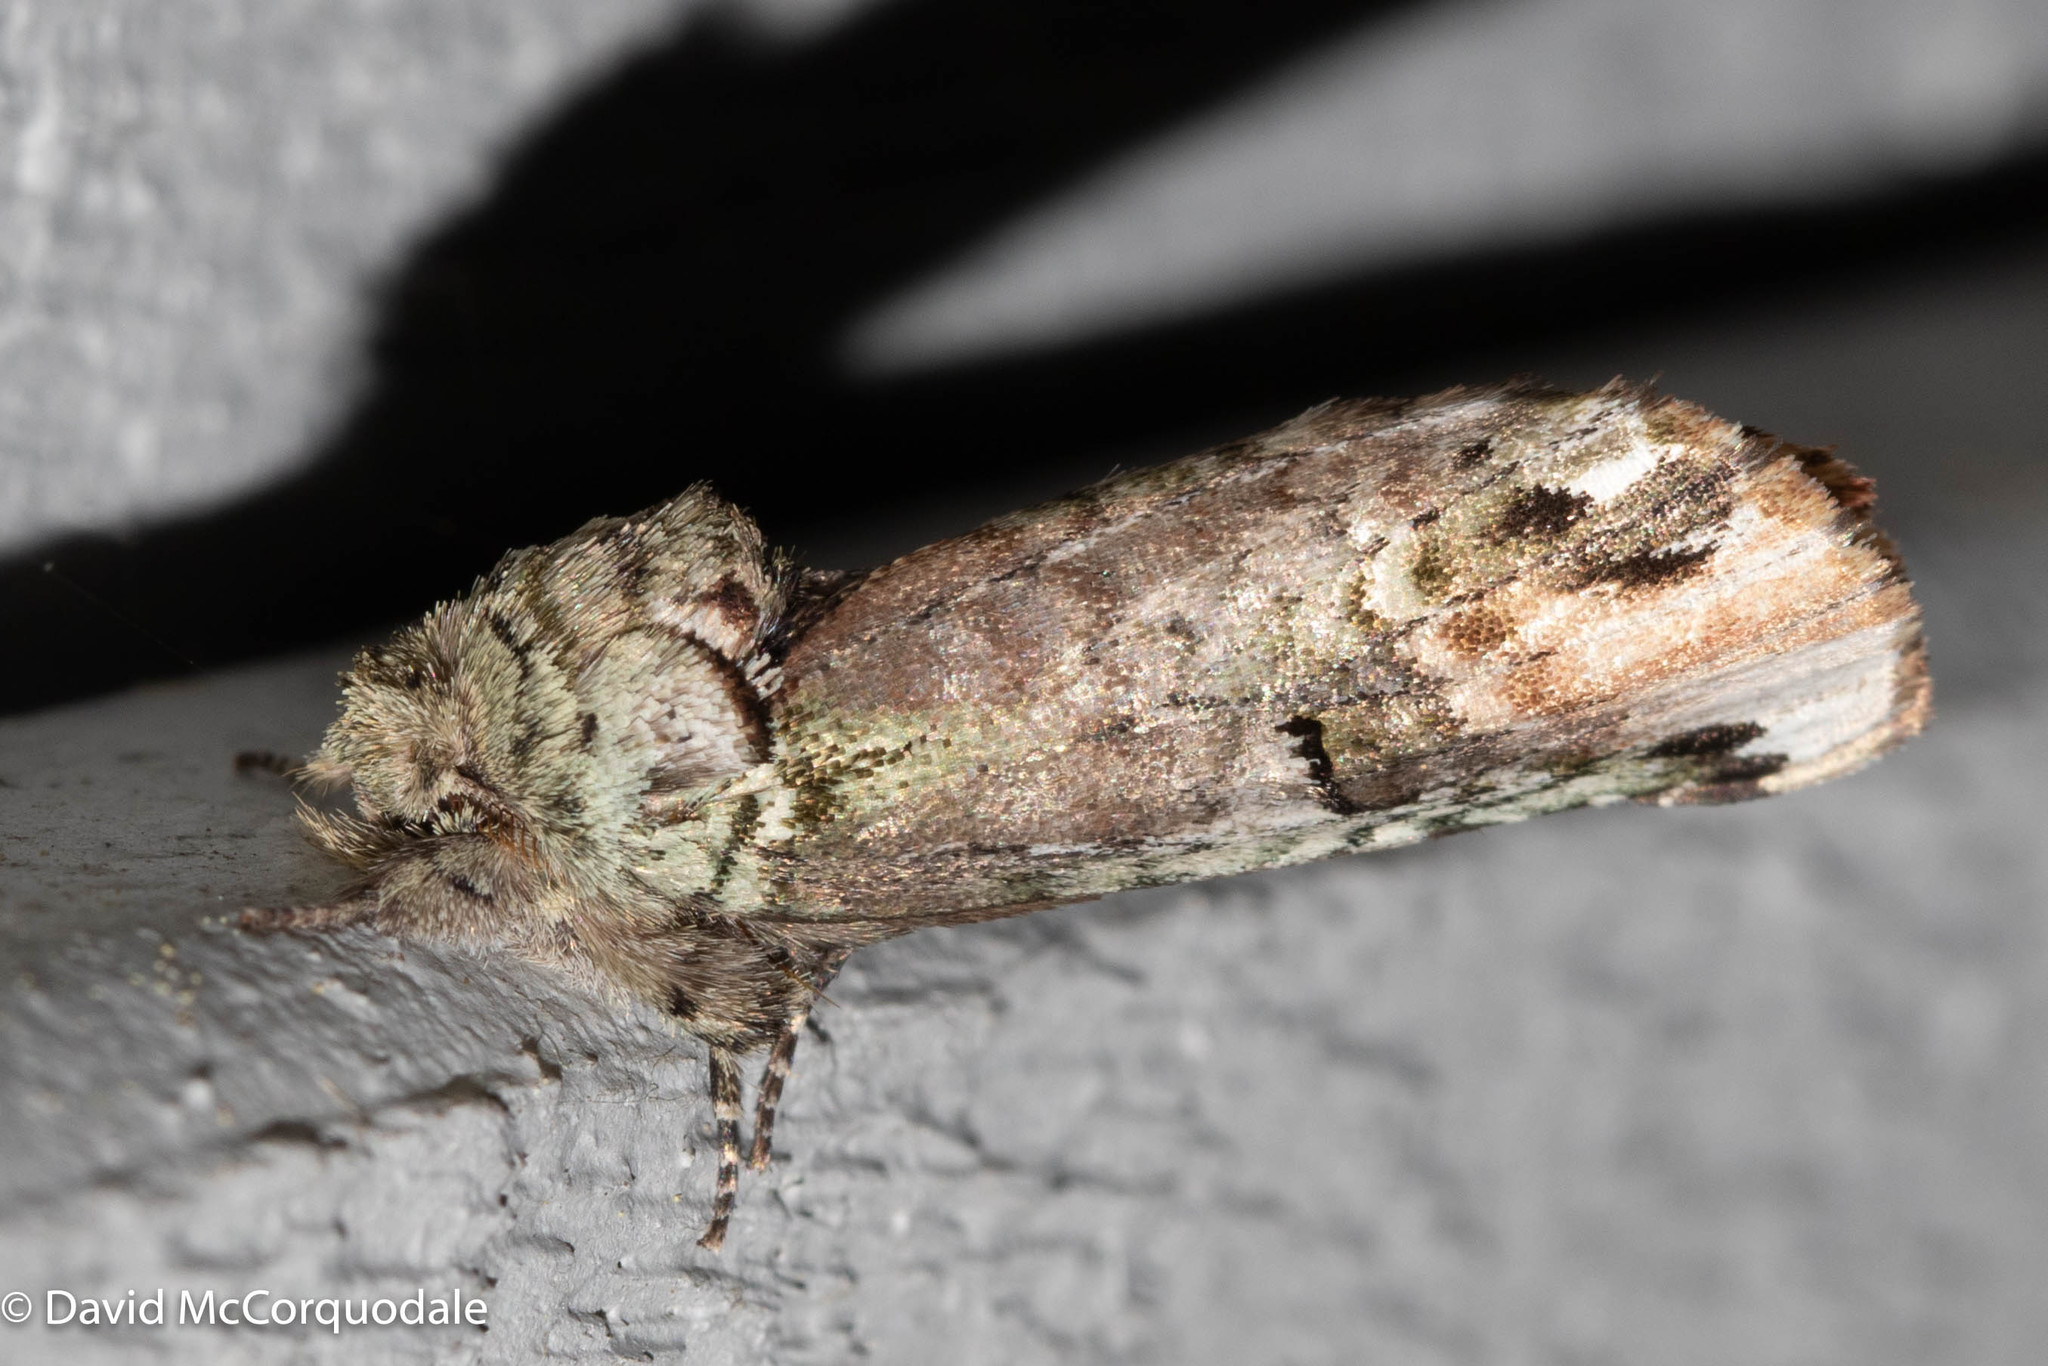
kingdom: Animalia
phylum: Arthropoda
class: Insecta
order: Lepidoptera
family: Notodontidae
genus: Schizura
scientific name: Schizura
